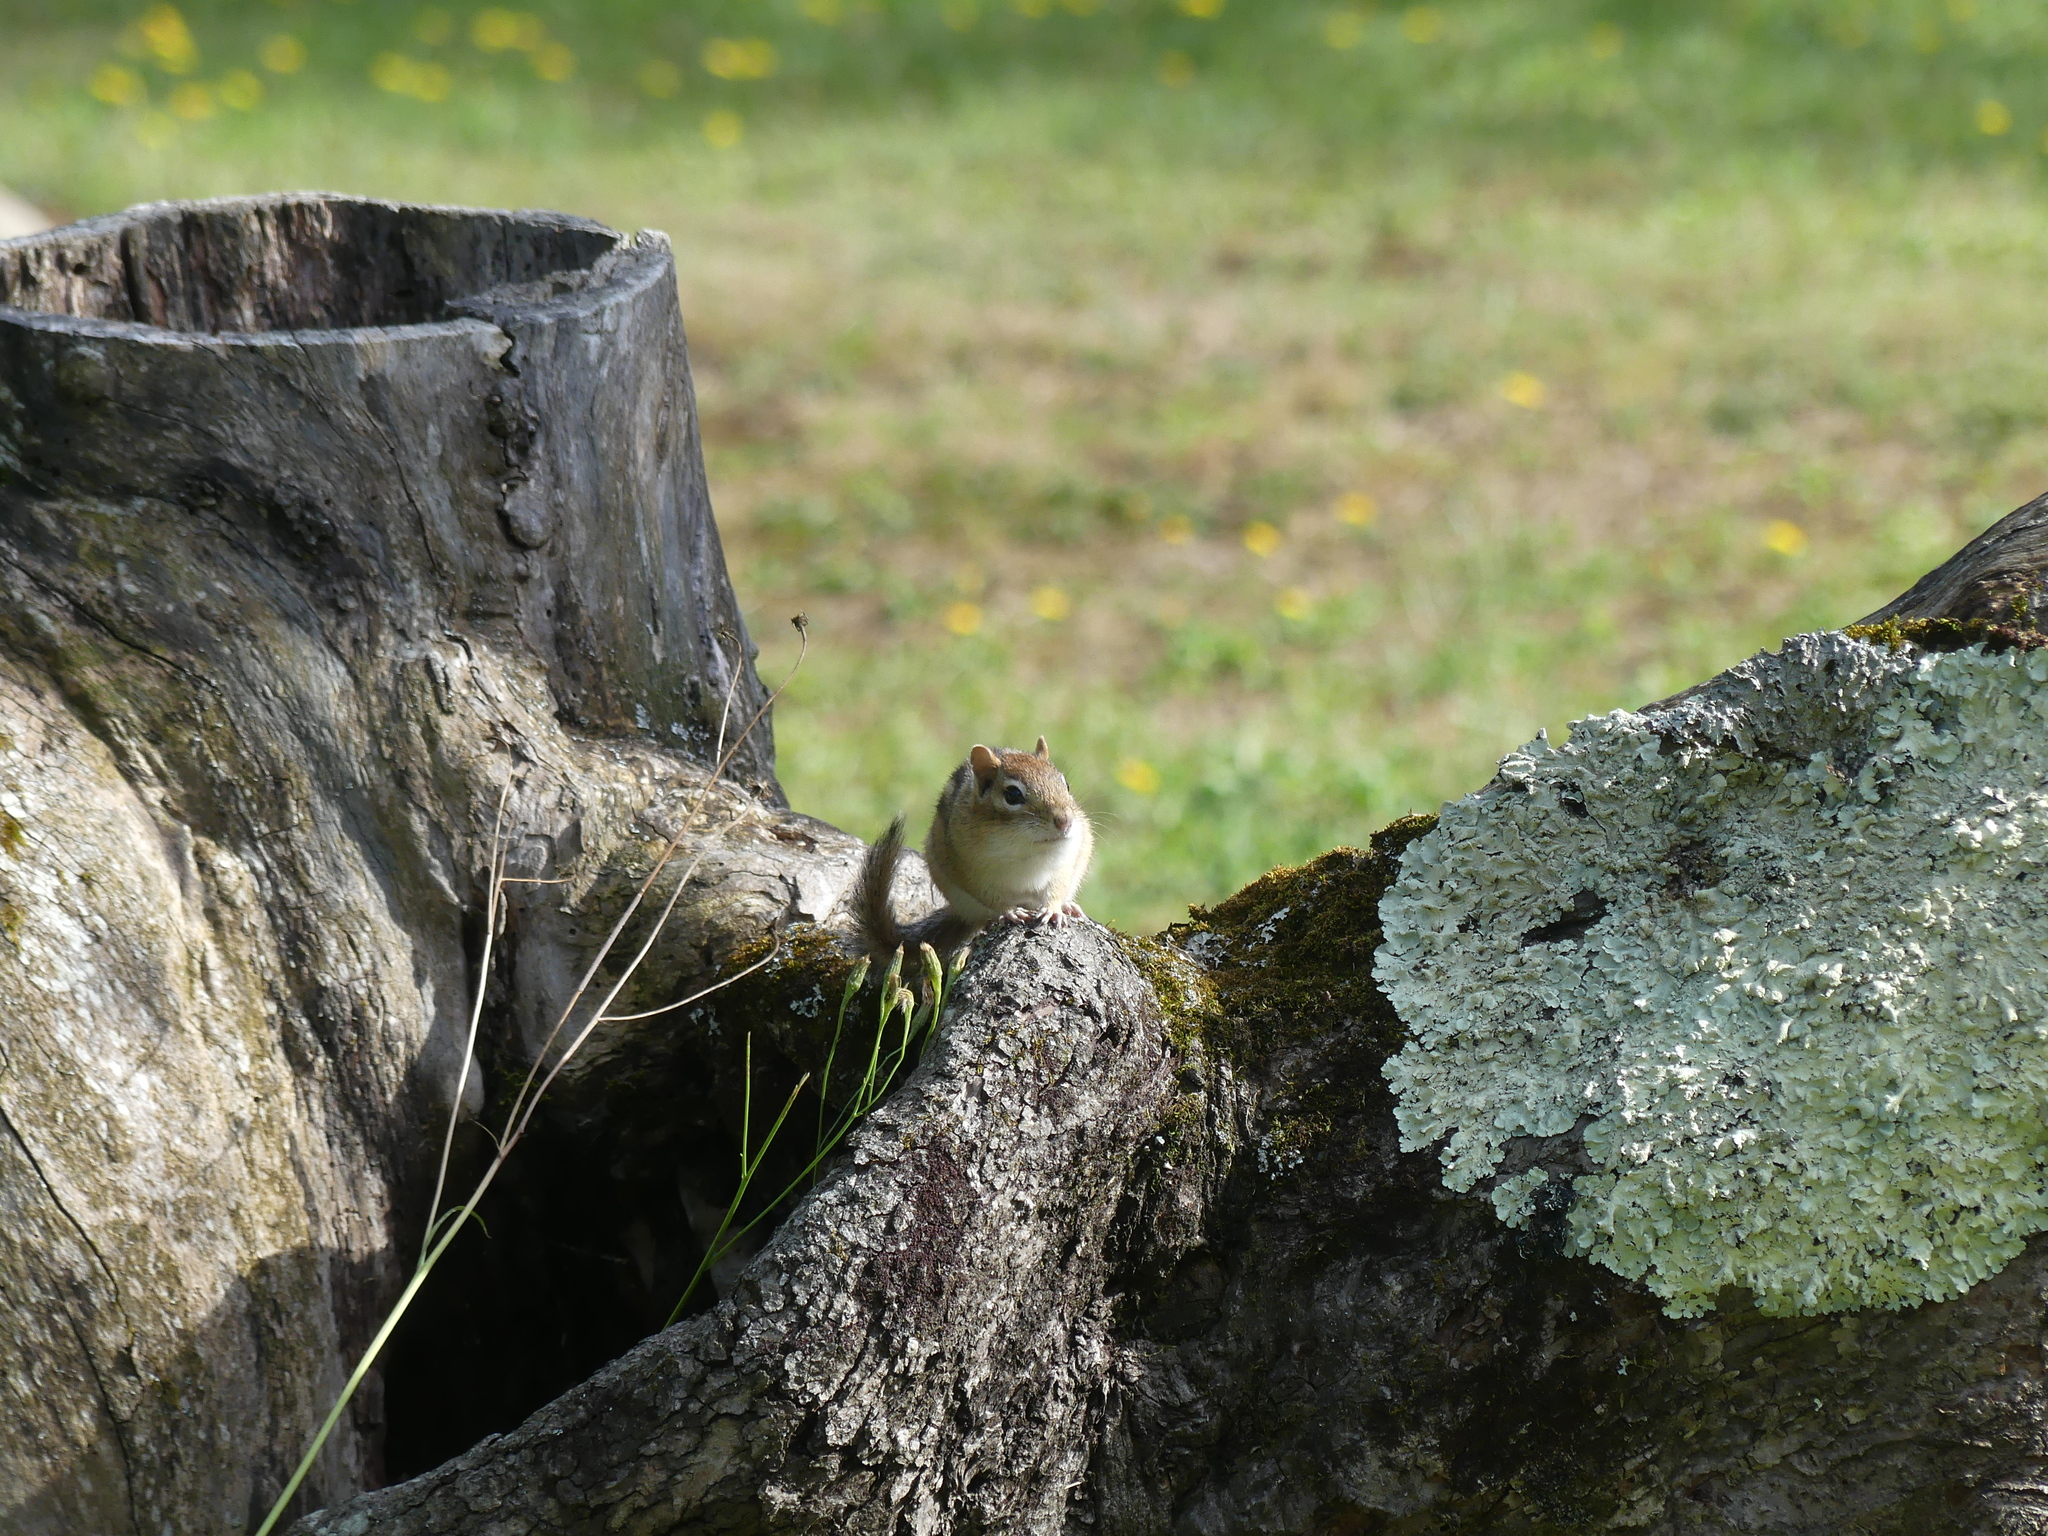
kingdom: Animalia
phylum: Chordata
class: Mammalia
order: Rodentia
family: Sciuridae
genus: Tamias
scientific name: Tamias striatus
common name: Eastern chipmunk
